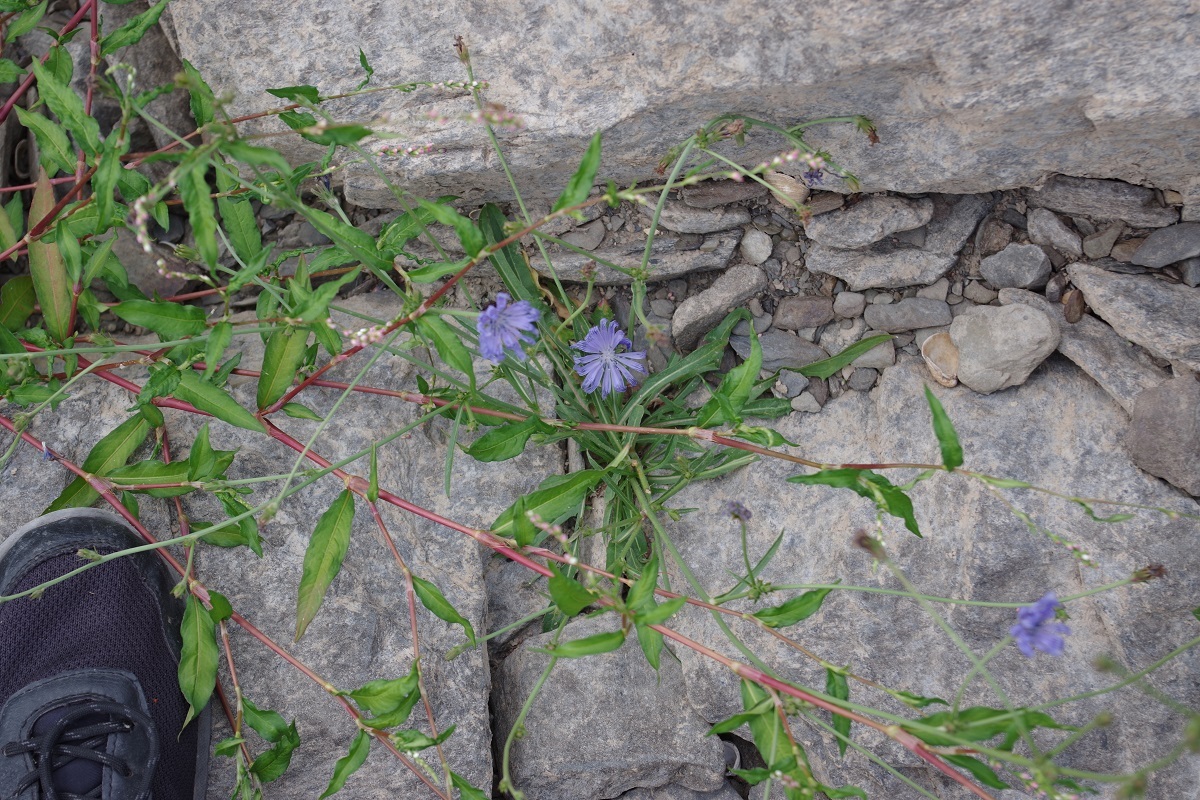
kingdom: Plantae
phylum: Tracheophyta
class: Magnoliopsida
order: Asterales
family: Asteraceae
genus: Cichorium
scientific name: Cichorium intybus
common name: Chicory
